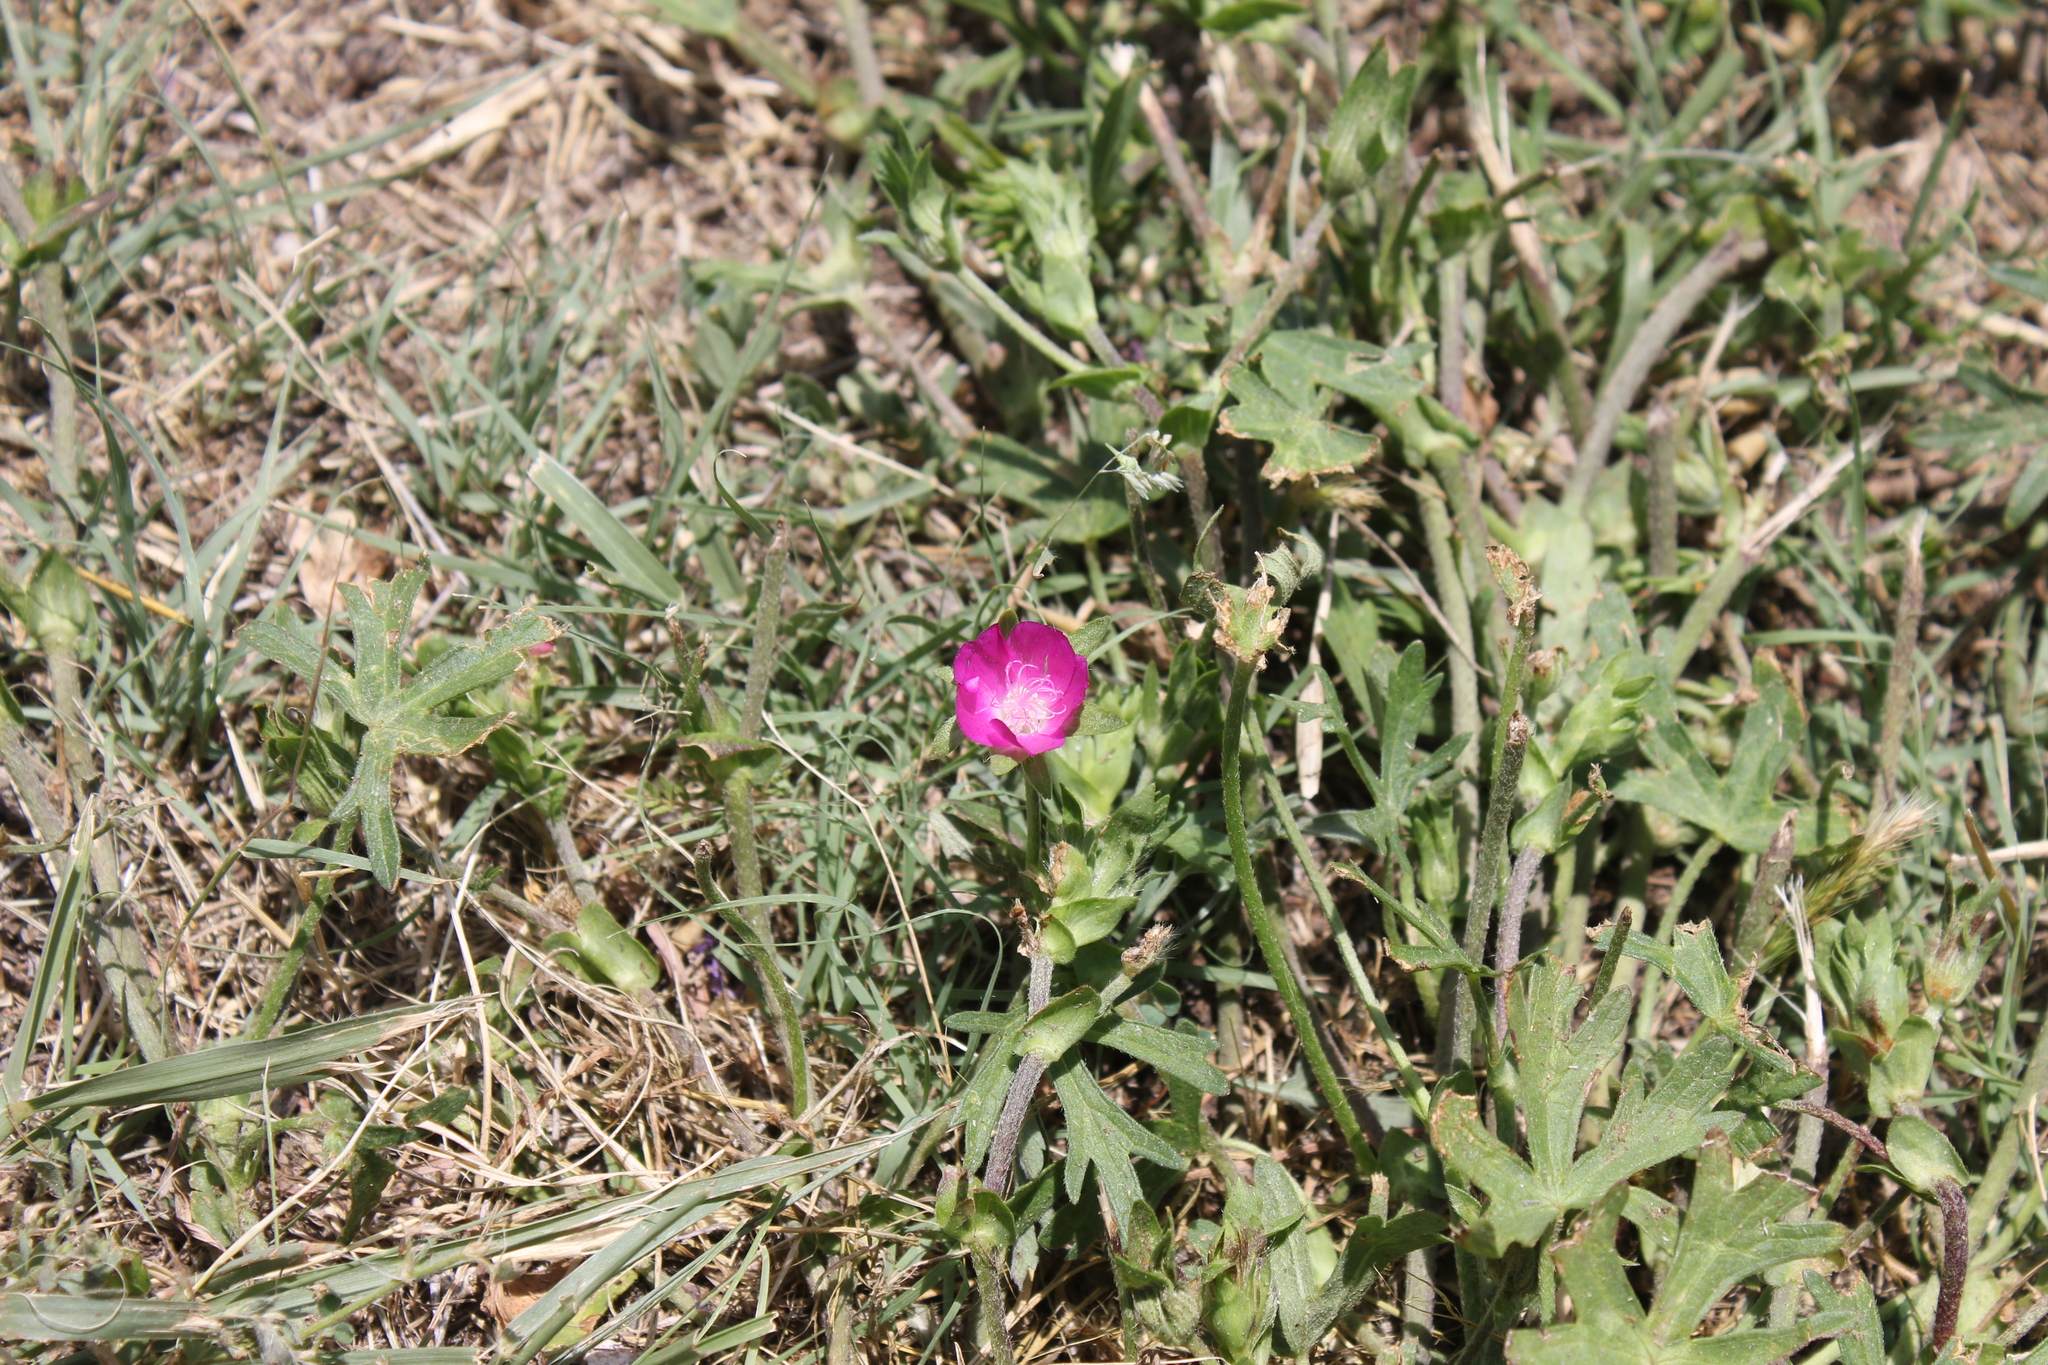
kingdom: Plantae
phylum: Tracheophyta
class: Magnoliopsida
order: Malvales
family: Malvaceae
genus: Callirhoe
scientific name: Callirhoe involucrata
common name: Purple poppy-mallow
